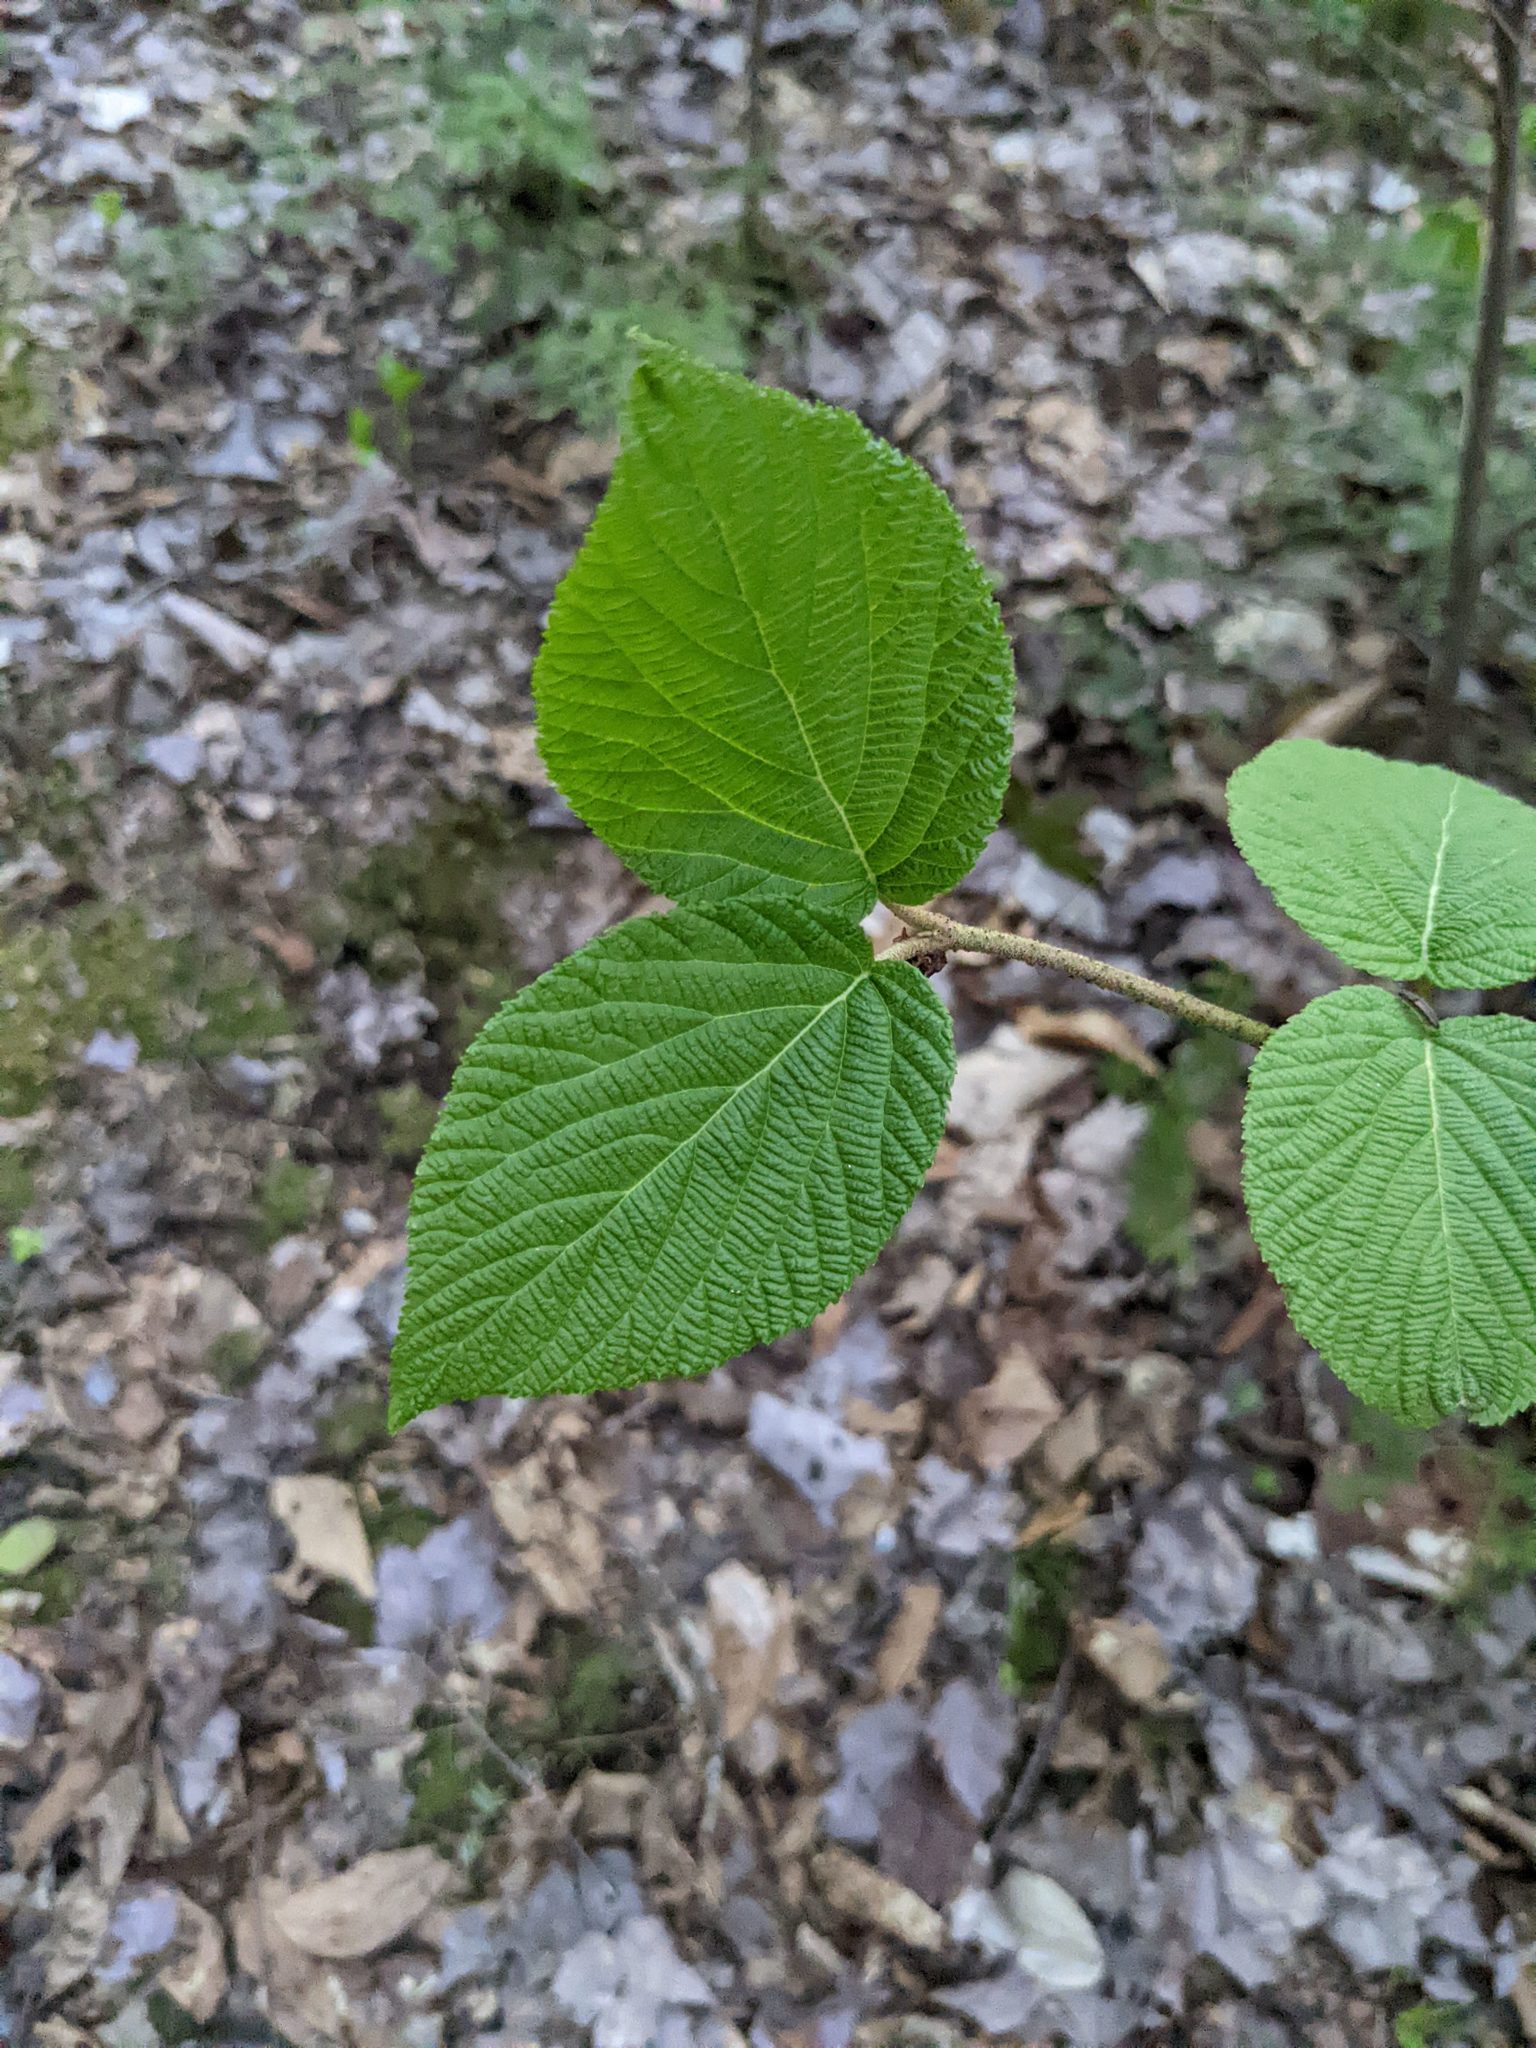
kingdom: Plantae
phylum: Tracheophyta
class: Magnoliopsida
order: Dipsacales
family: Viburnaceae
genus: Viburnum
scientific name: Viburnum lantanoides
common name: Hobblebush
